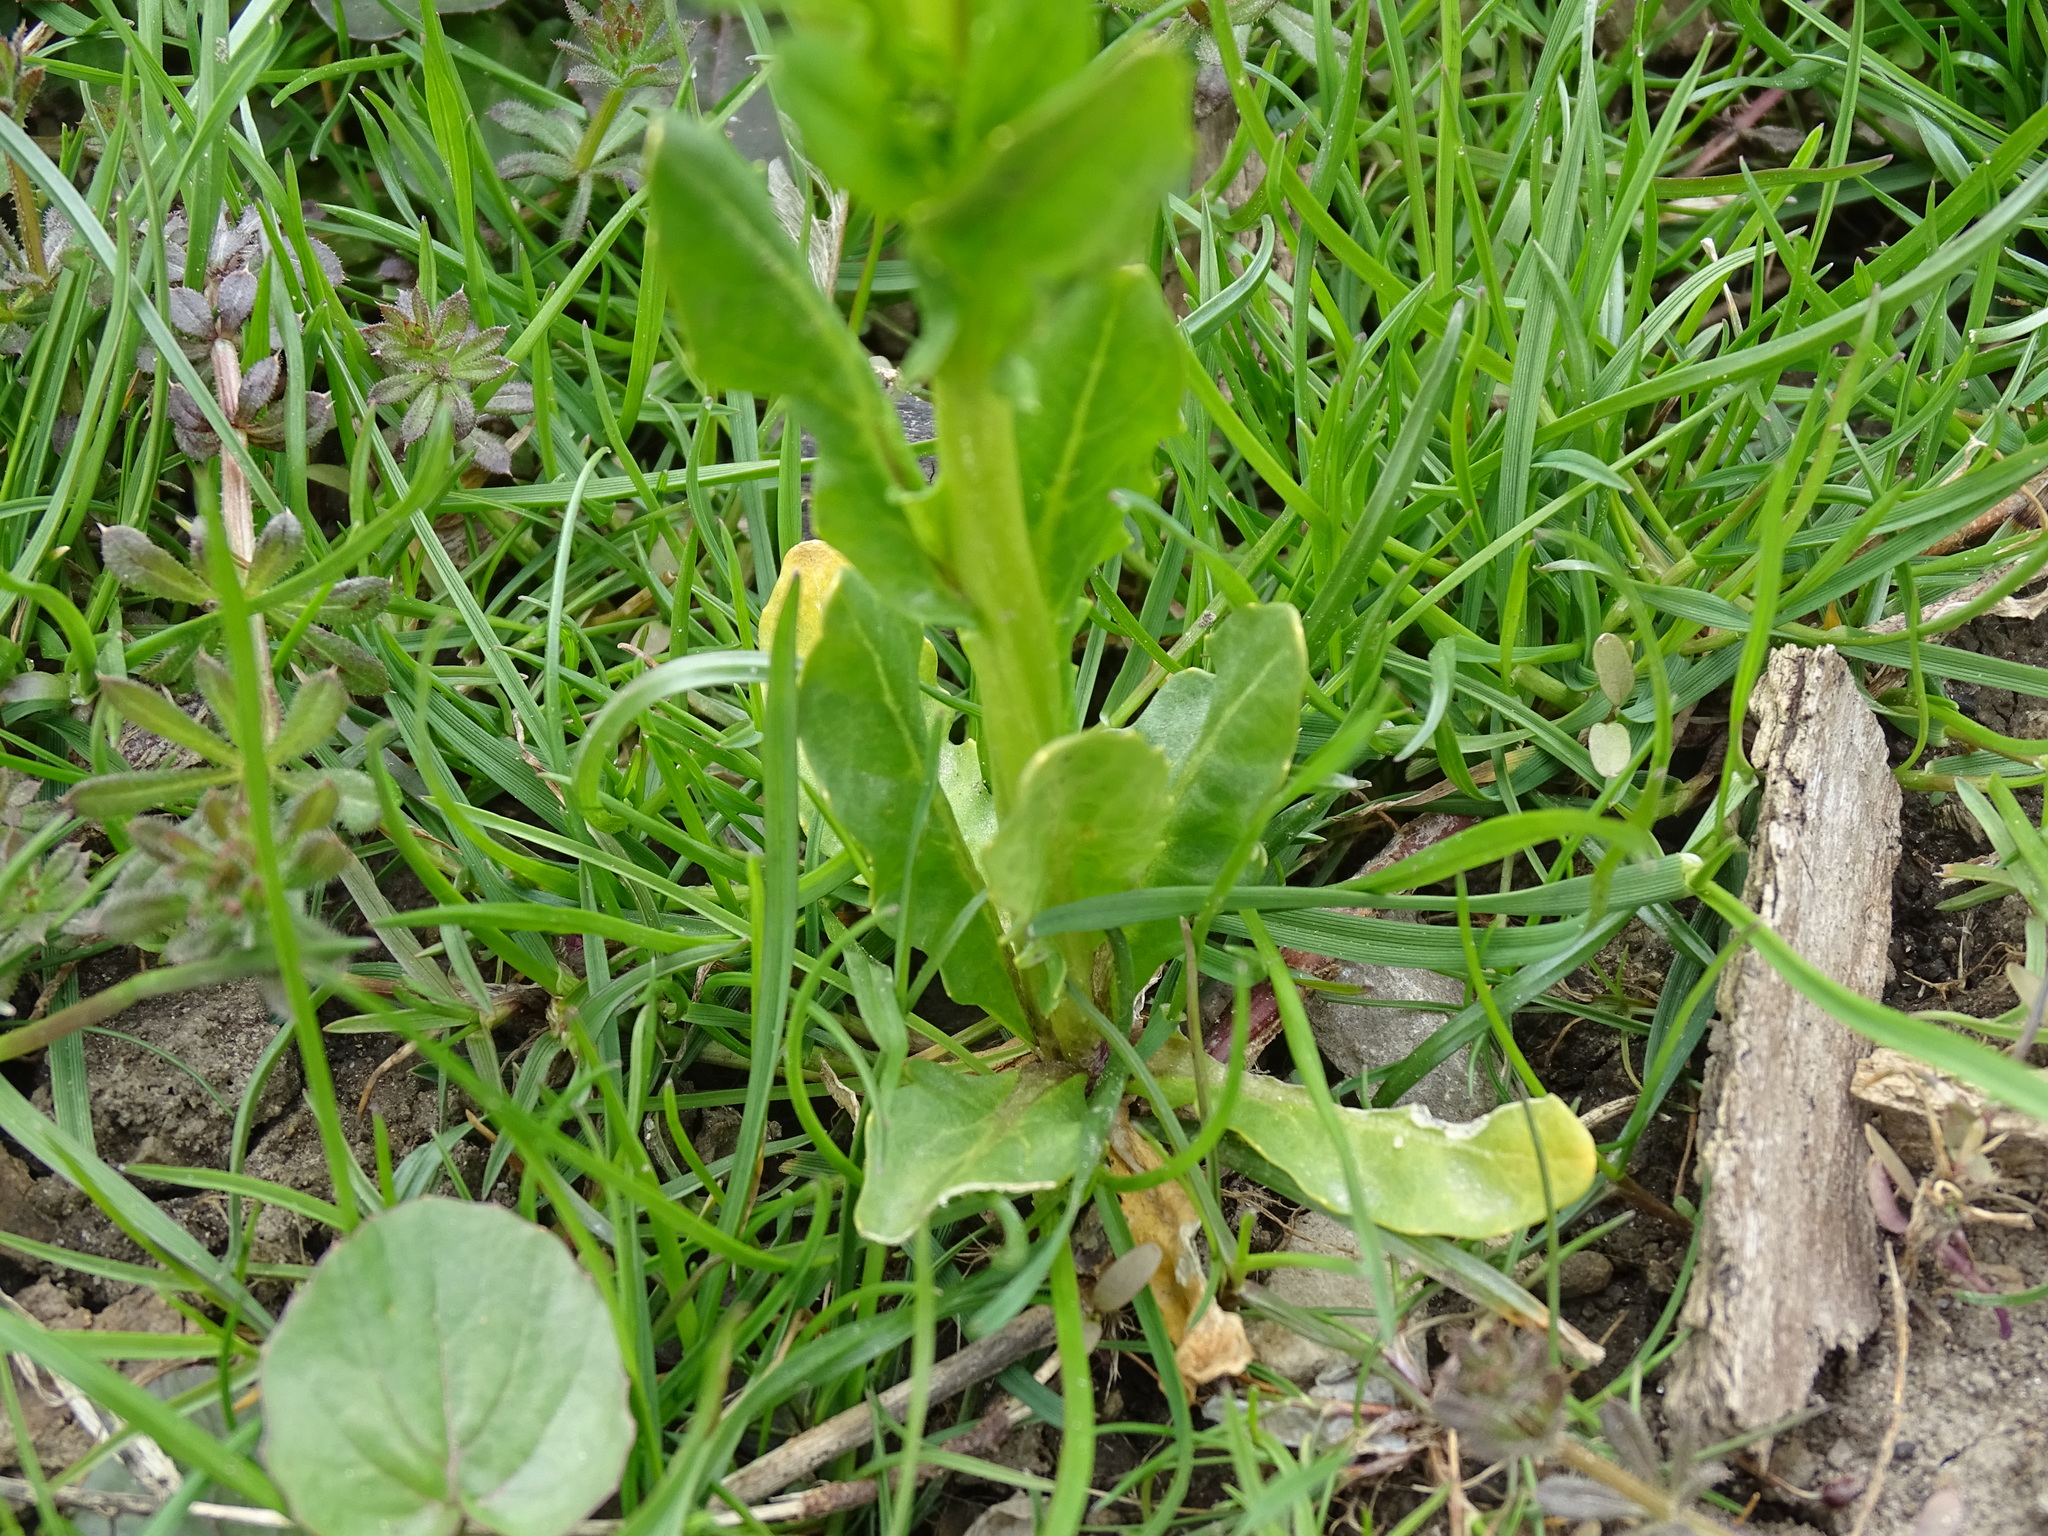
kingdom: Plantae
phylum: Tracheophyta
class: Magnoliopsida
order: Brassicales
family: Brassicaceae
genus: Thlaspi
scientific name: Thlaspi arvense
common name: Field pennycress
